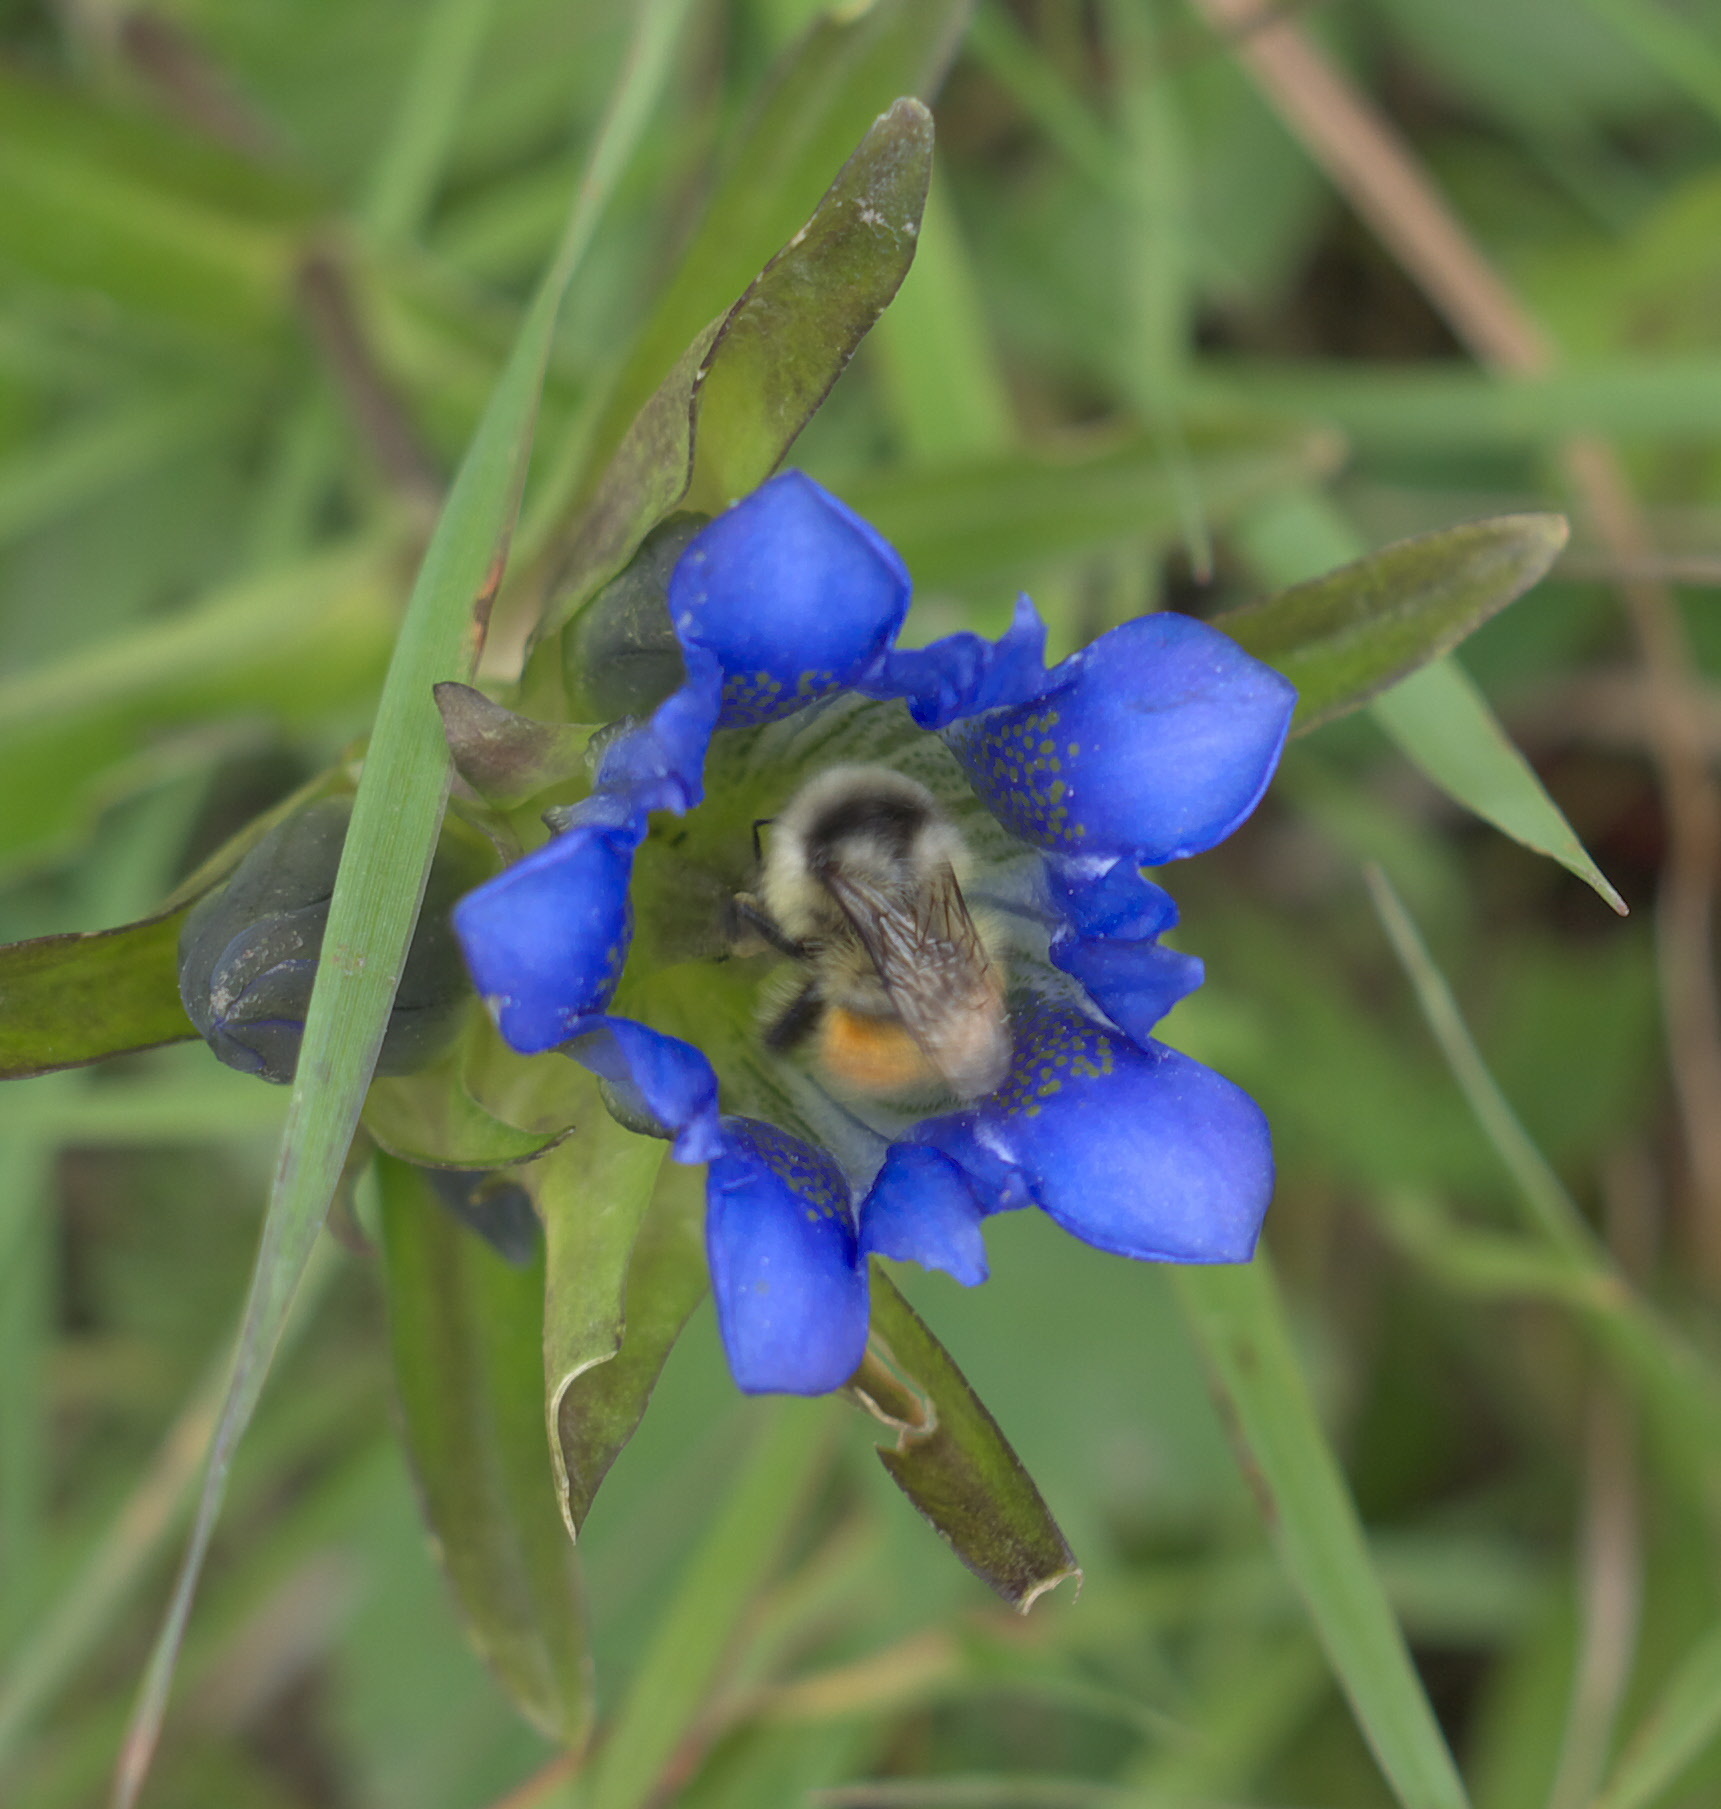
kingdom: Animalia
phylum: Arthropoda
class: Insecta
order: Hymenoptera
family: Apidae
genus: Pyrobombus
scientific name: Pyrobombus
